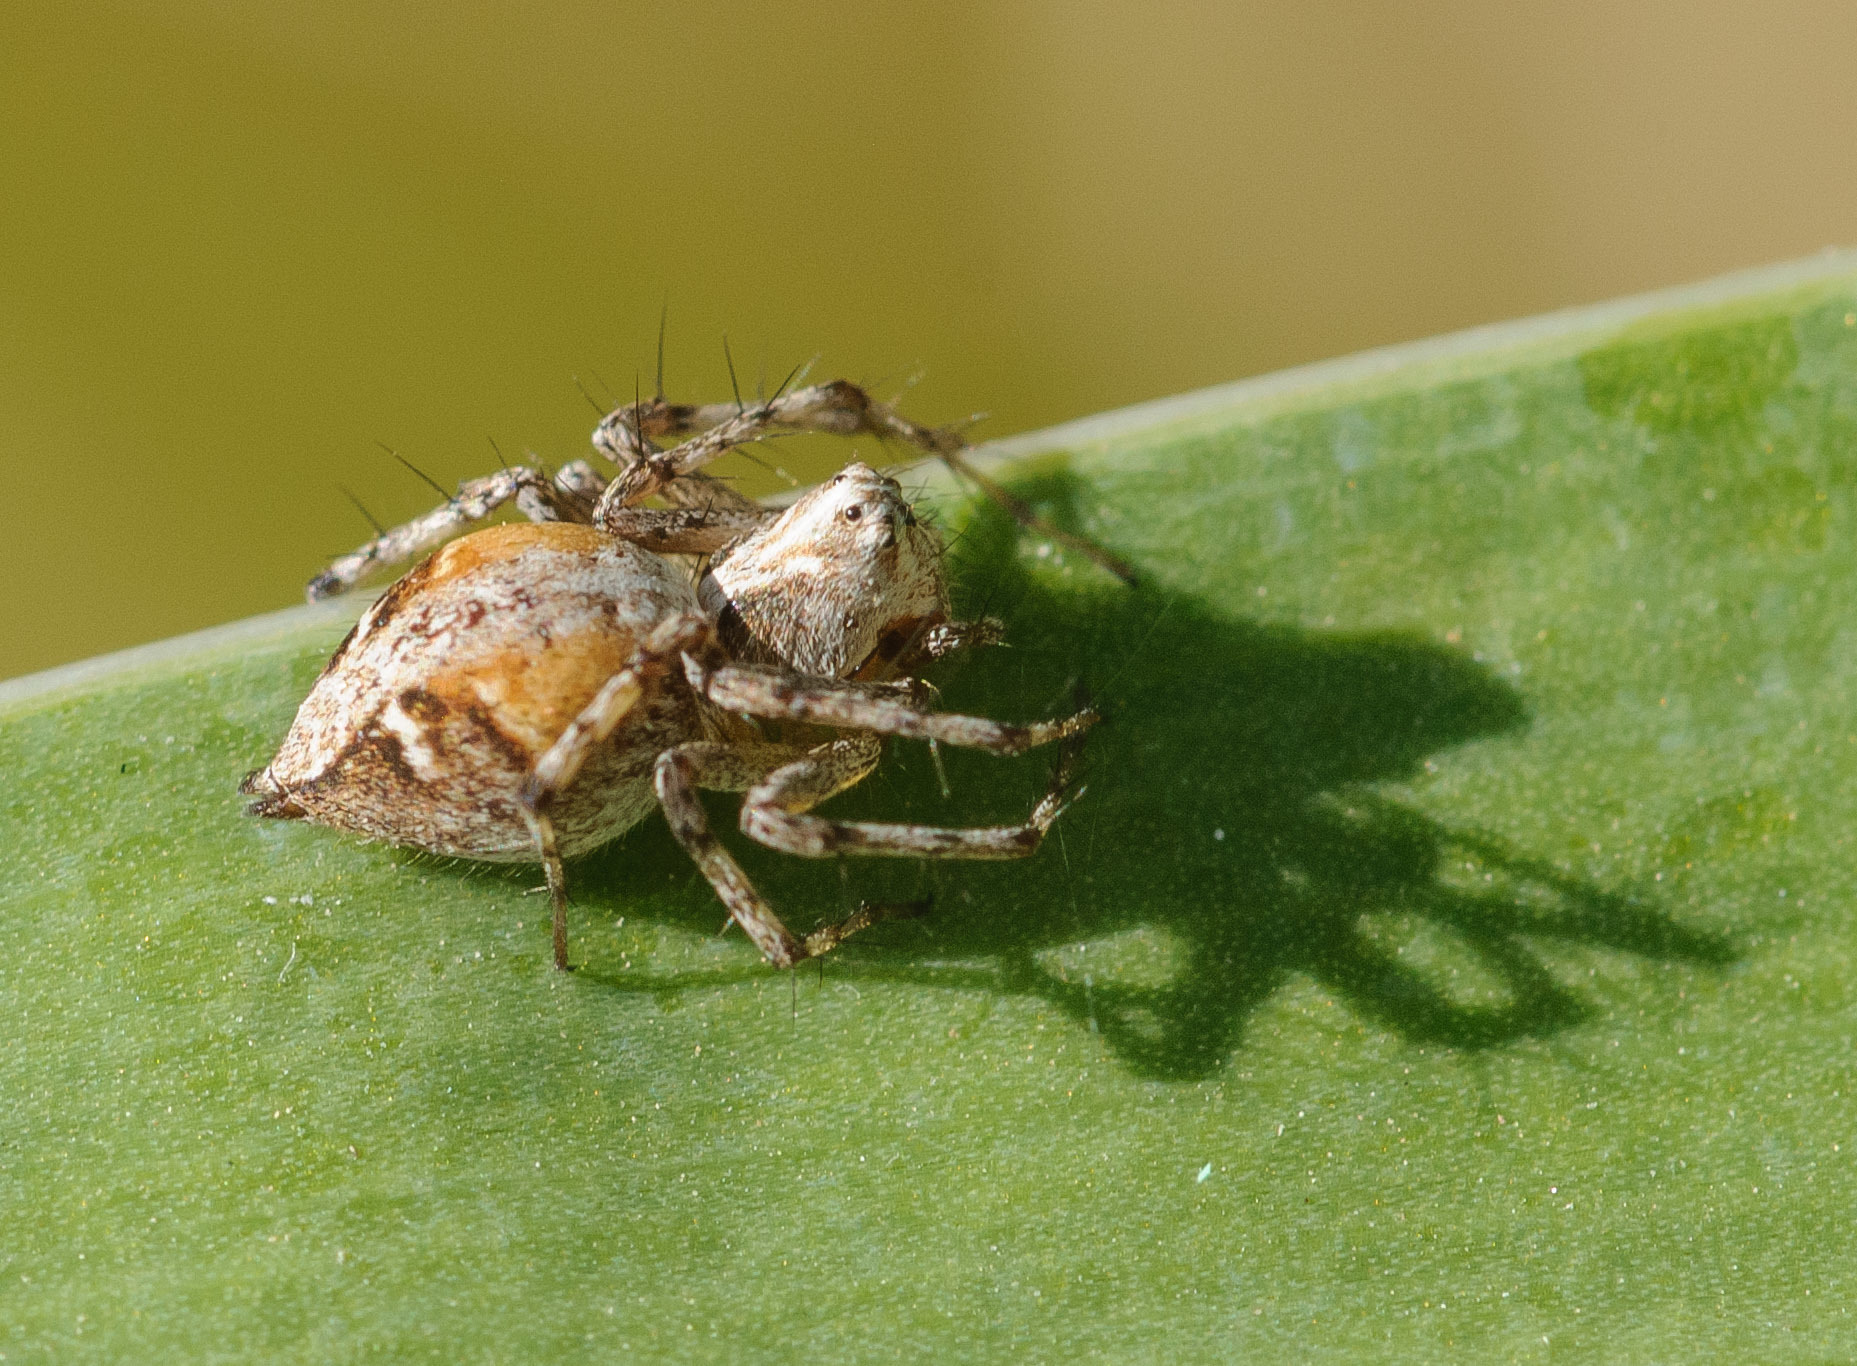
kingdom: Animalia
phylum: Arthropoda
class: Arachnida
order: Araneae
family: Oxyopidae
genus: Oxyopes
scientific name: Oxyopes scalaris
